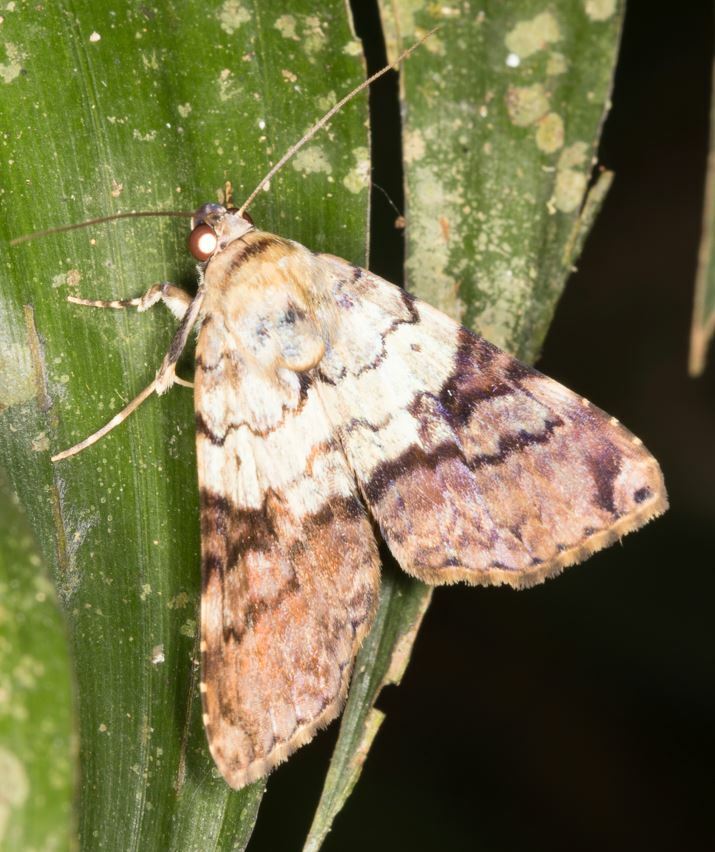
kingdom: Animalia
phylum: Arthropoda
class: Insecta
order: Lepidoptera
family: Erebidae
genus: Acolasis
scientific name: Acolasis dimidiata
